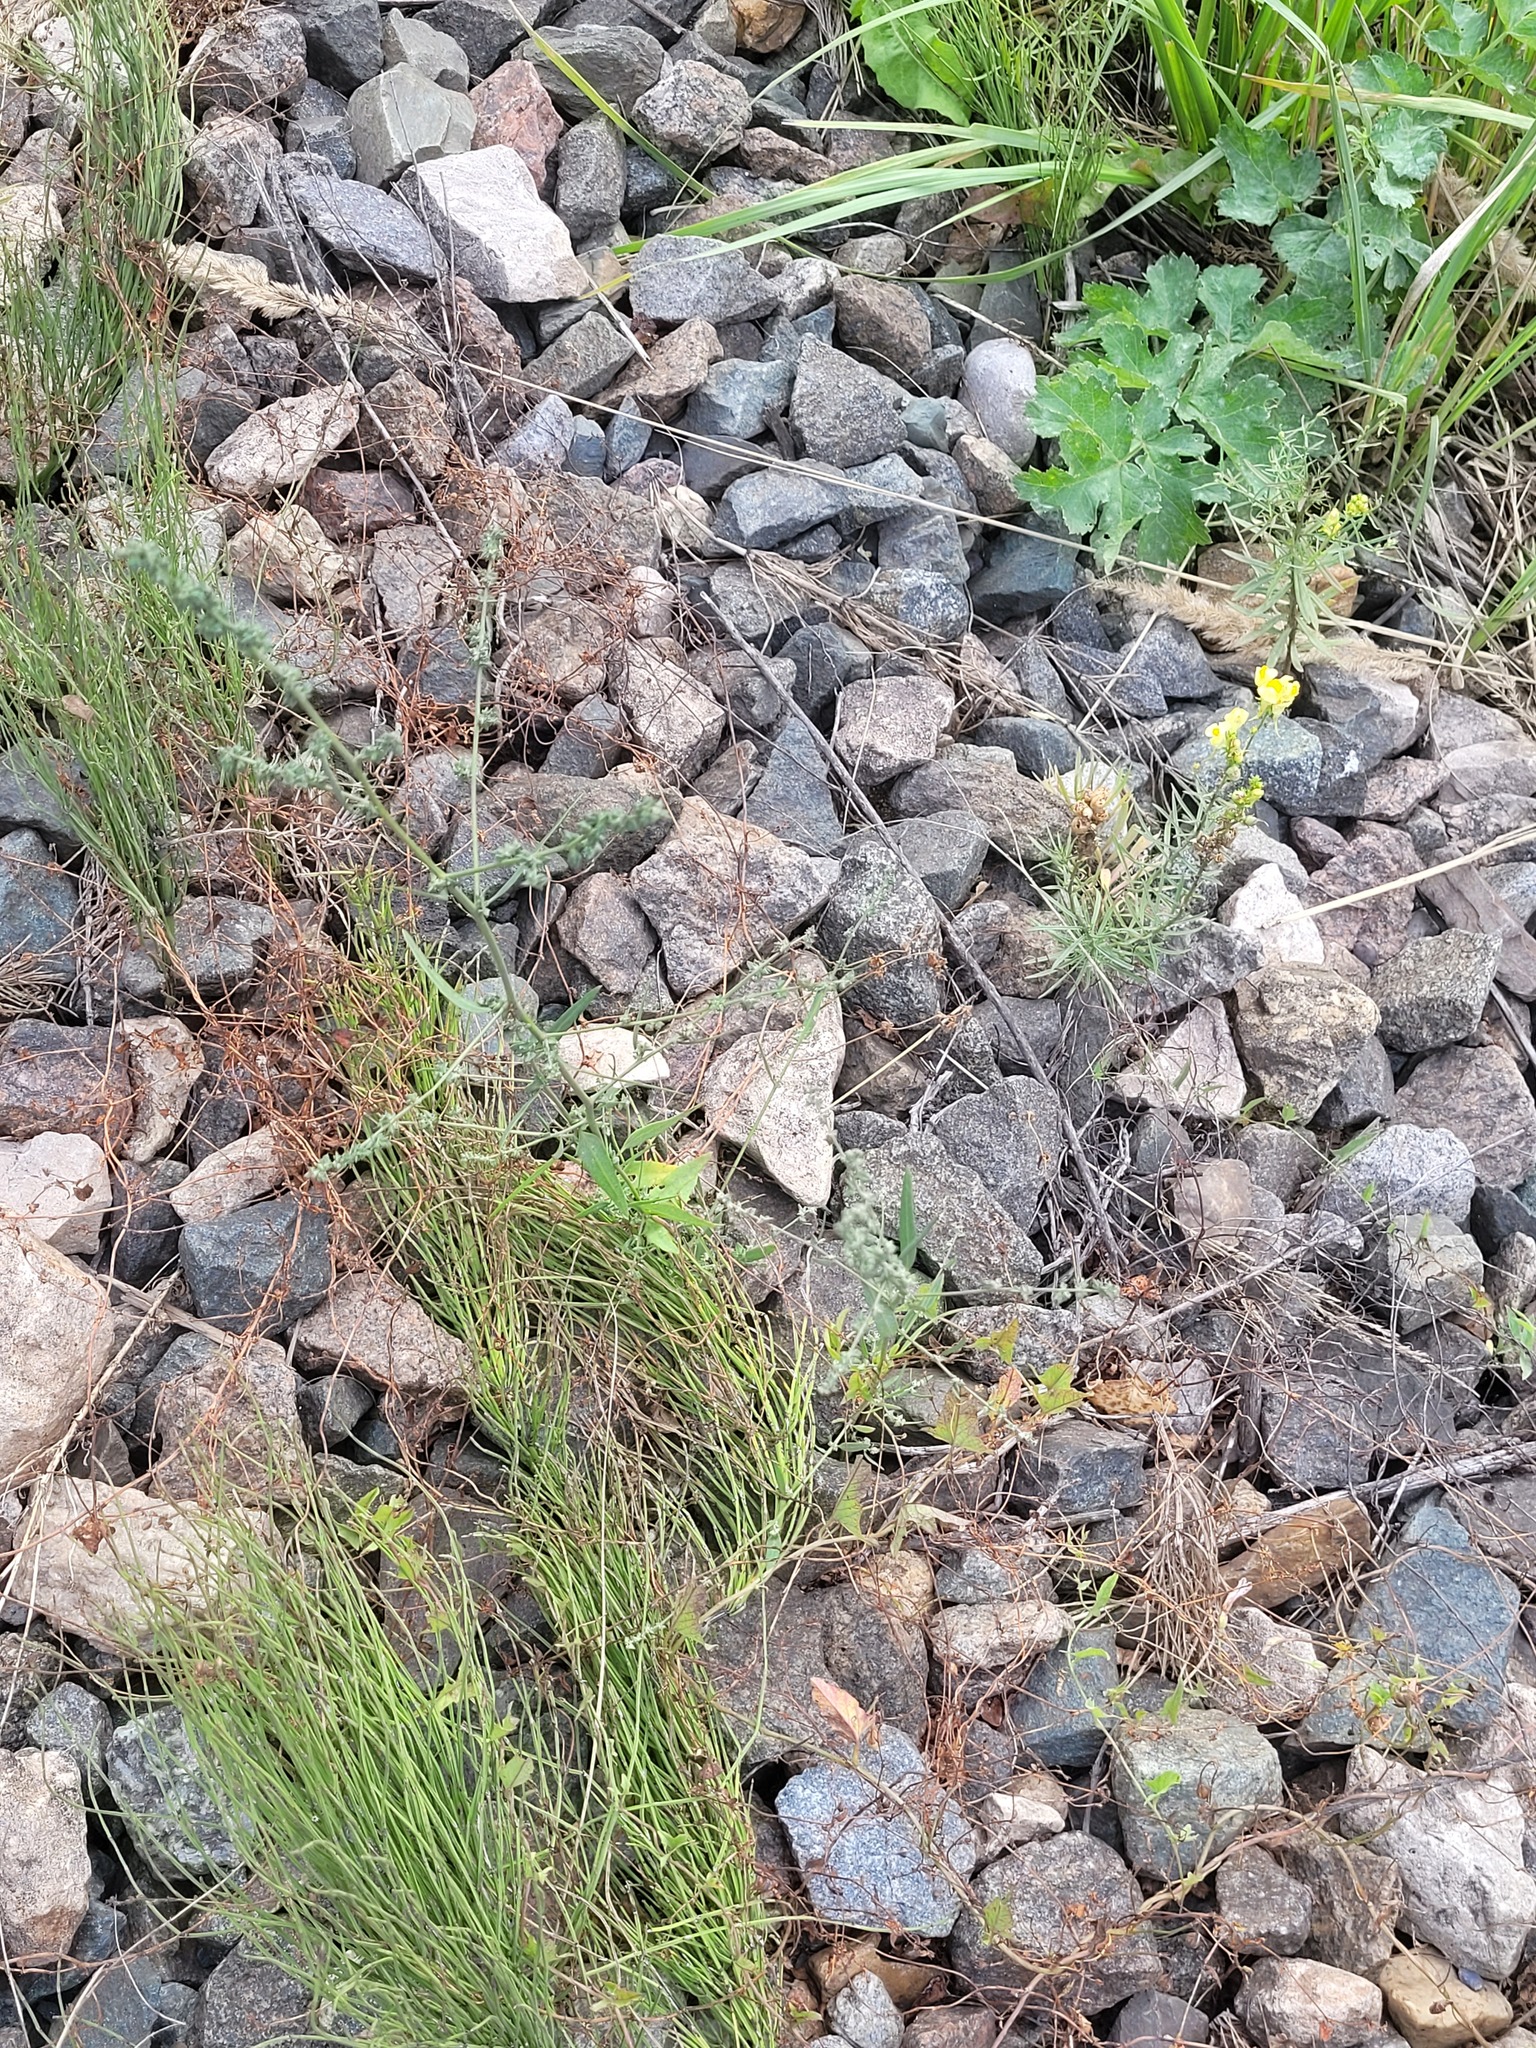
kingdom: Plantae
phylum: Tracheophyta
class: Magnoliopsida
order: Caryophyllales
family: Amaranthaceae
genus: Atriplex
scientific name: Atriplex patula
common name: Common orache
